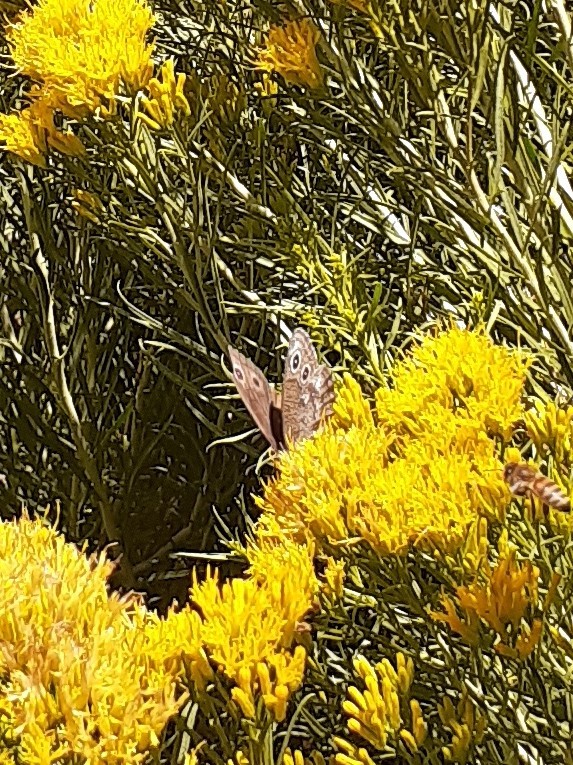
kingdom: Animalia
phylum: Arthropoda
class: Insecta
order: Lepidoptera
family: Nymphalidae
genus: Cercyonis
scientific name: Cercyonis sthenele
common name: Great basin wood-nymph
